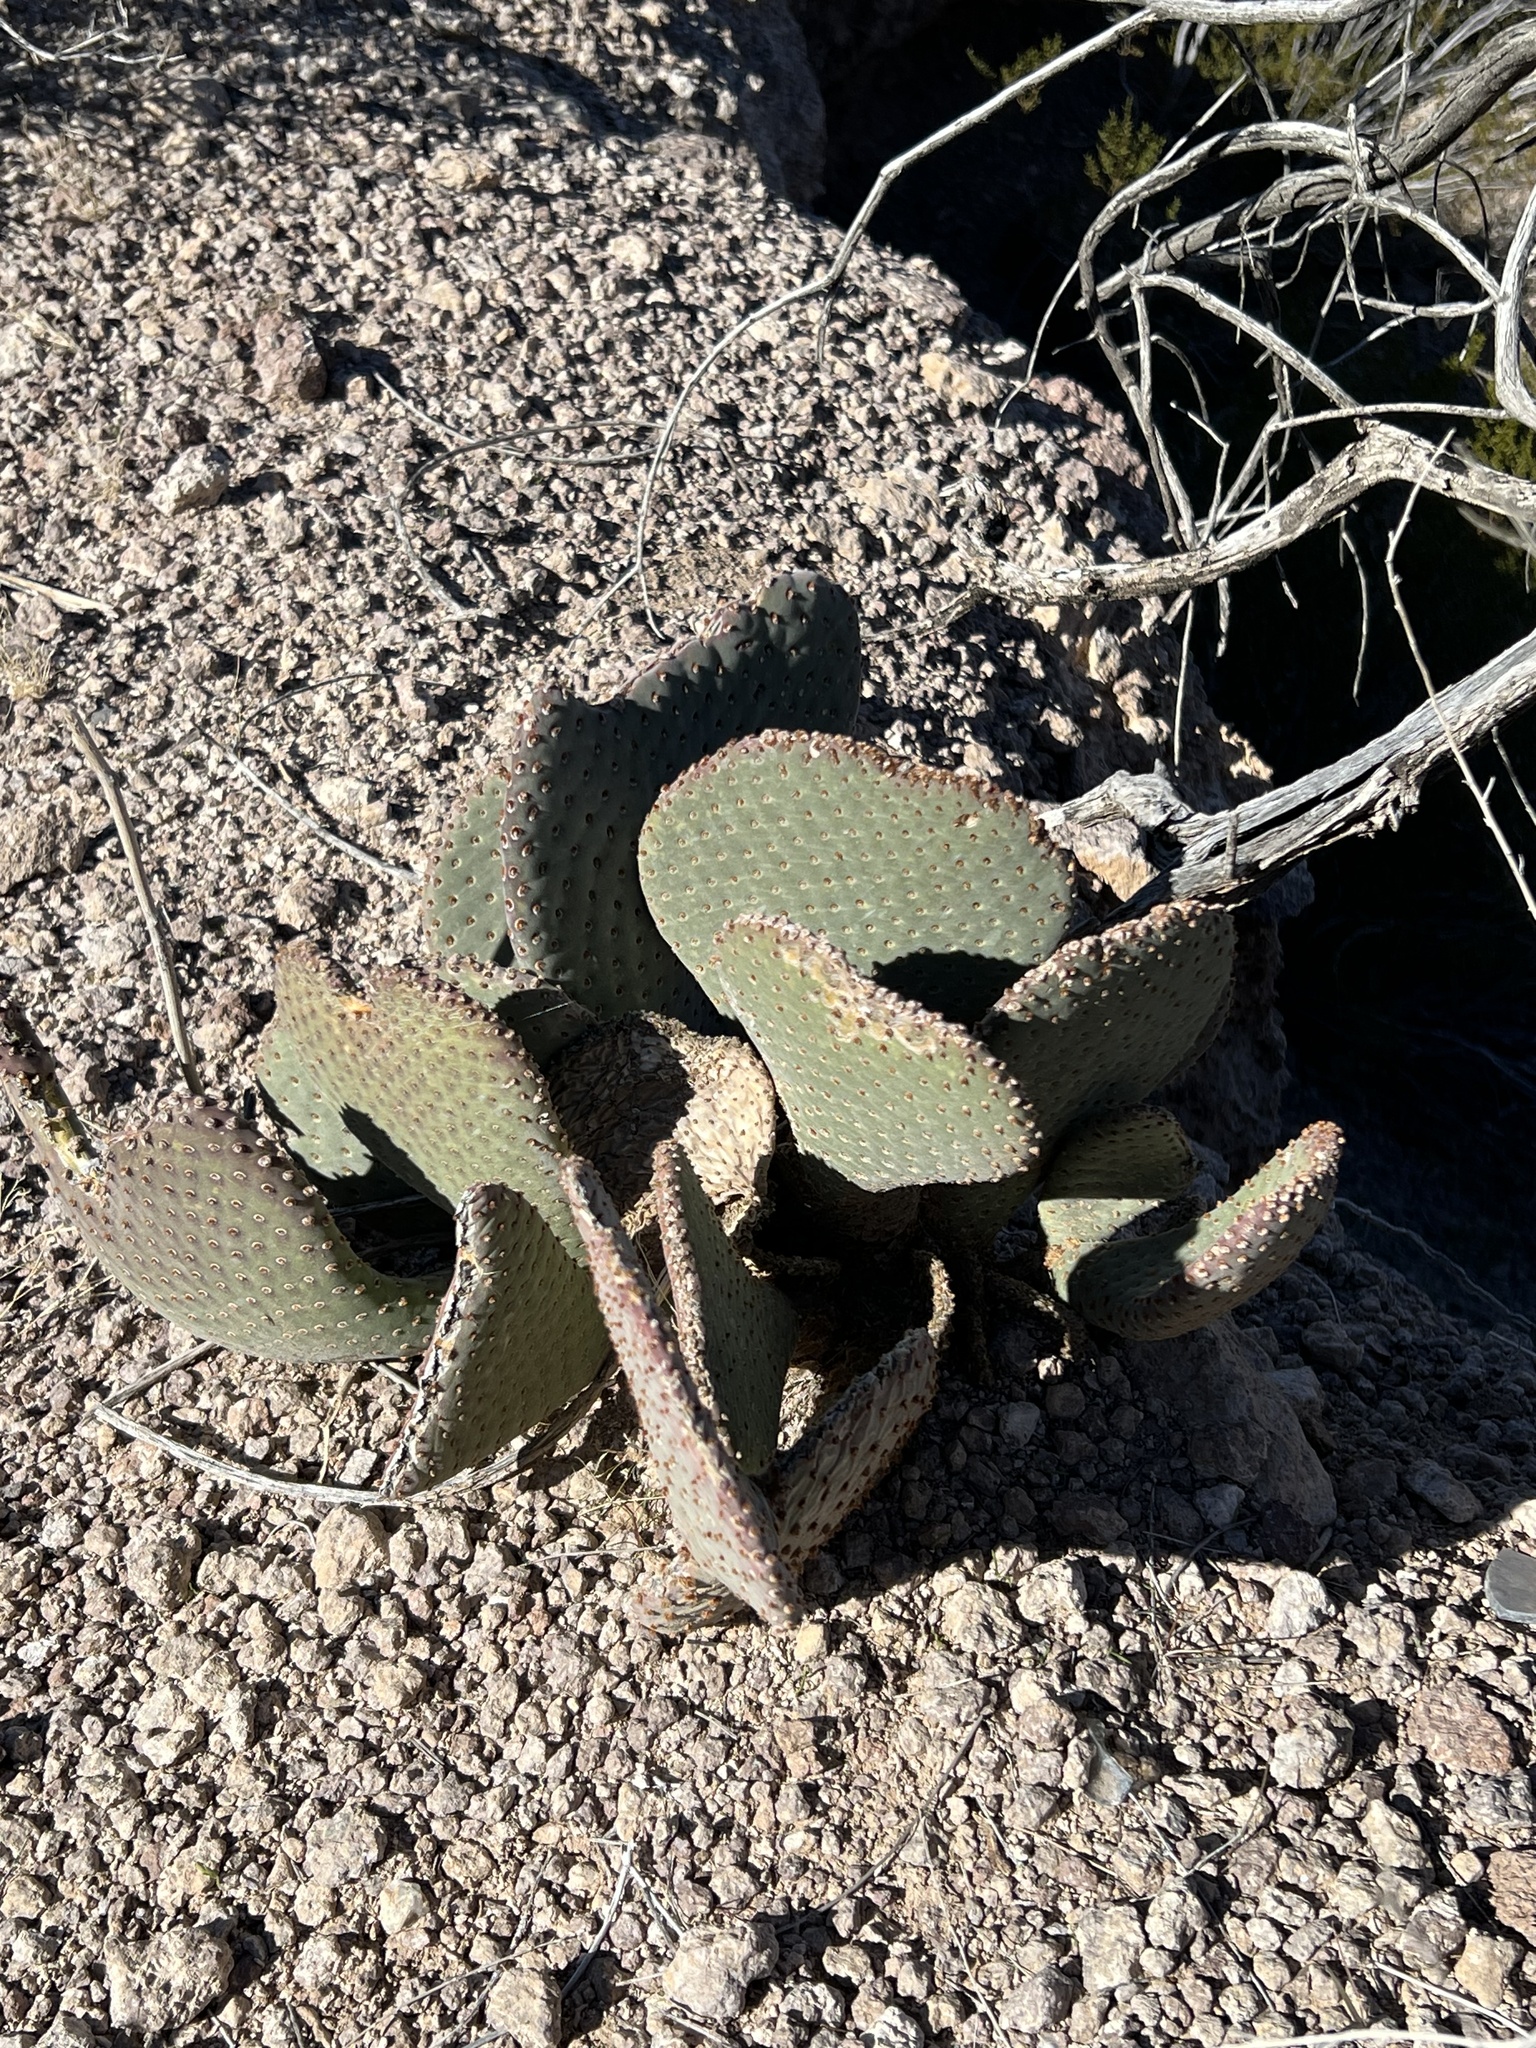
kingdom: Plantae
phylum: Tracheophyta
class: Magnoliopsida
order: Caryophyllales
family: Cactaceae
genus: Opuntia
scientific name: Opuntia basilaris
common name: Beavertail prickly-pear
